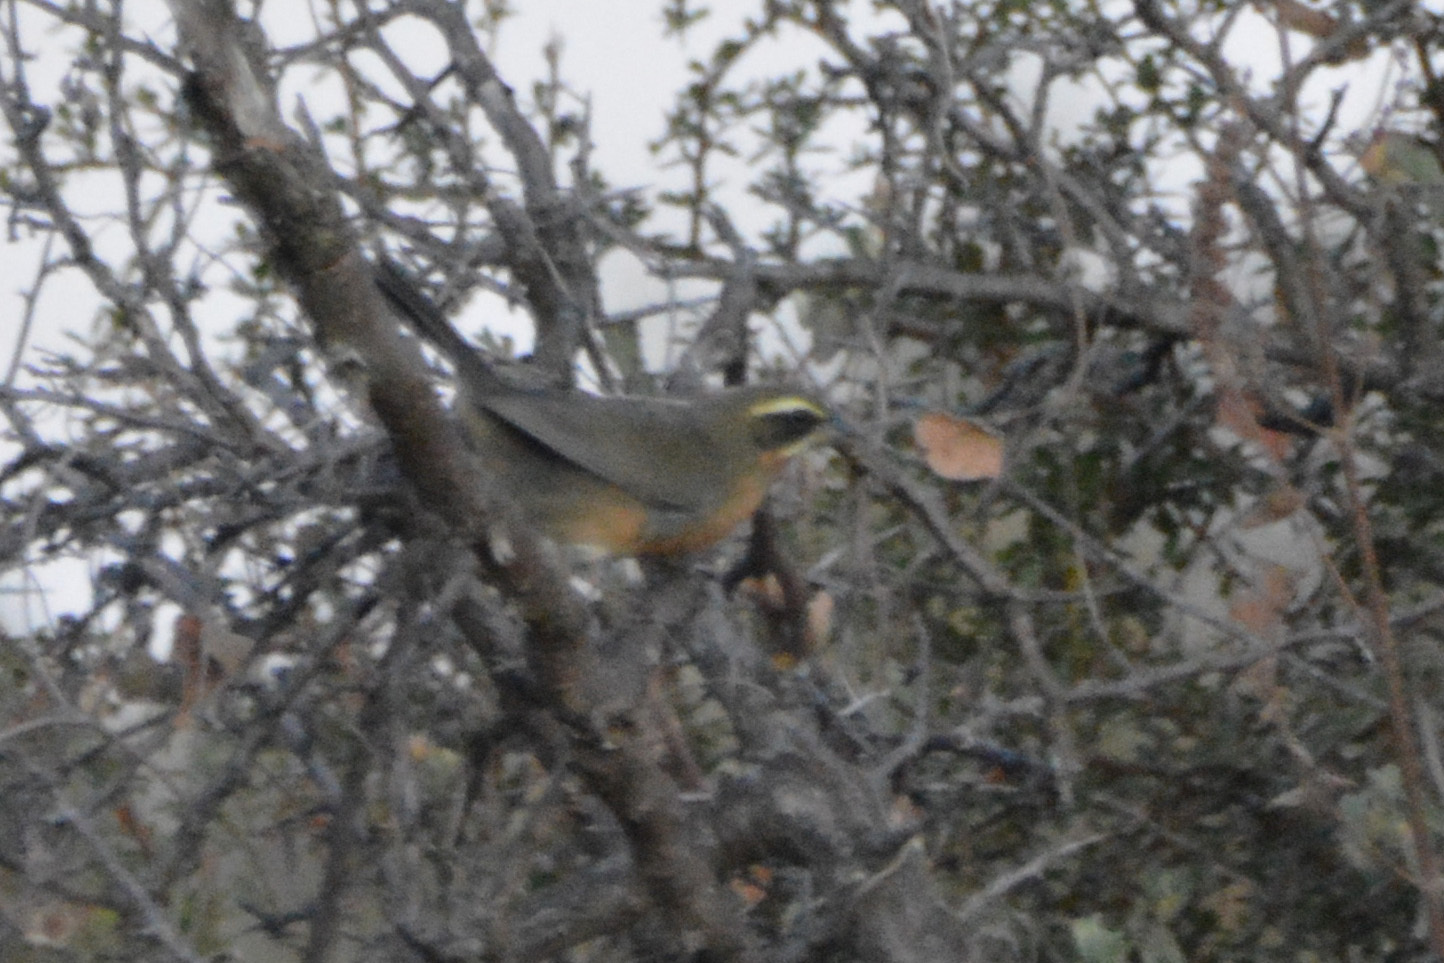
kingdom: Animalia
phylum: Chordata
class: Aves
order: Passeriformes
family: Thraupidae
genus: Poospiza
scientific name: Poospiza whitii
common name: Black-and-chestnut warbling finch
